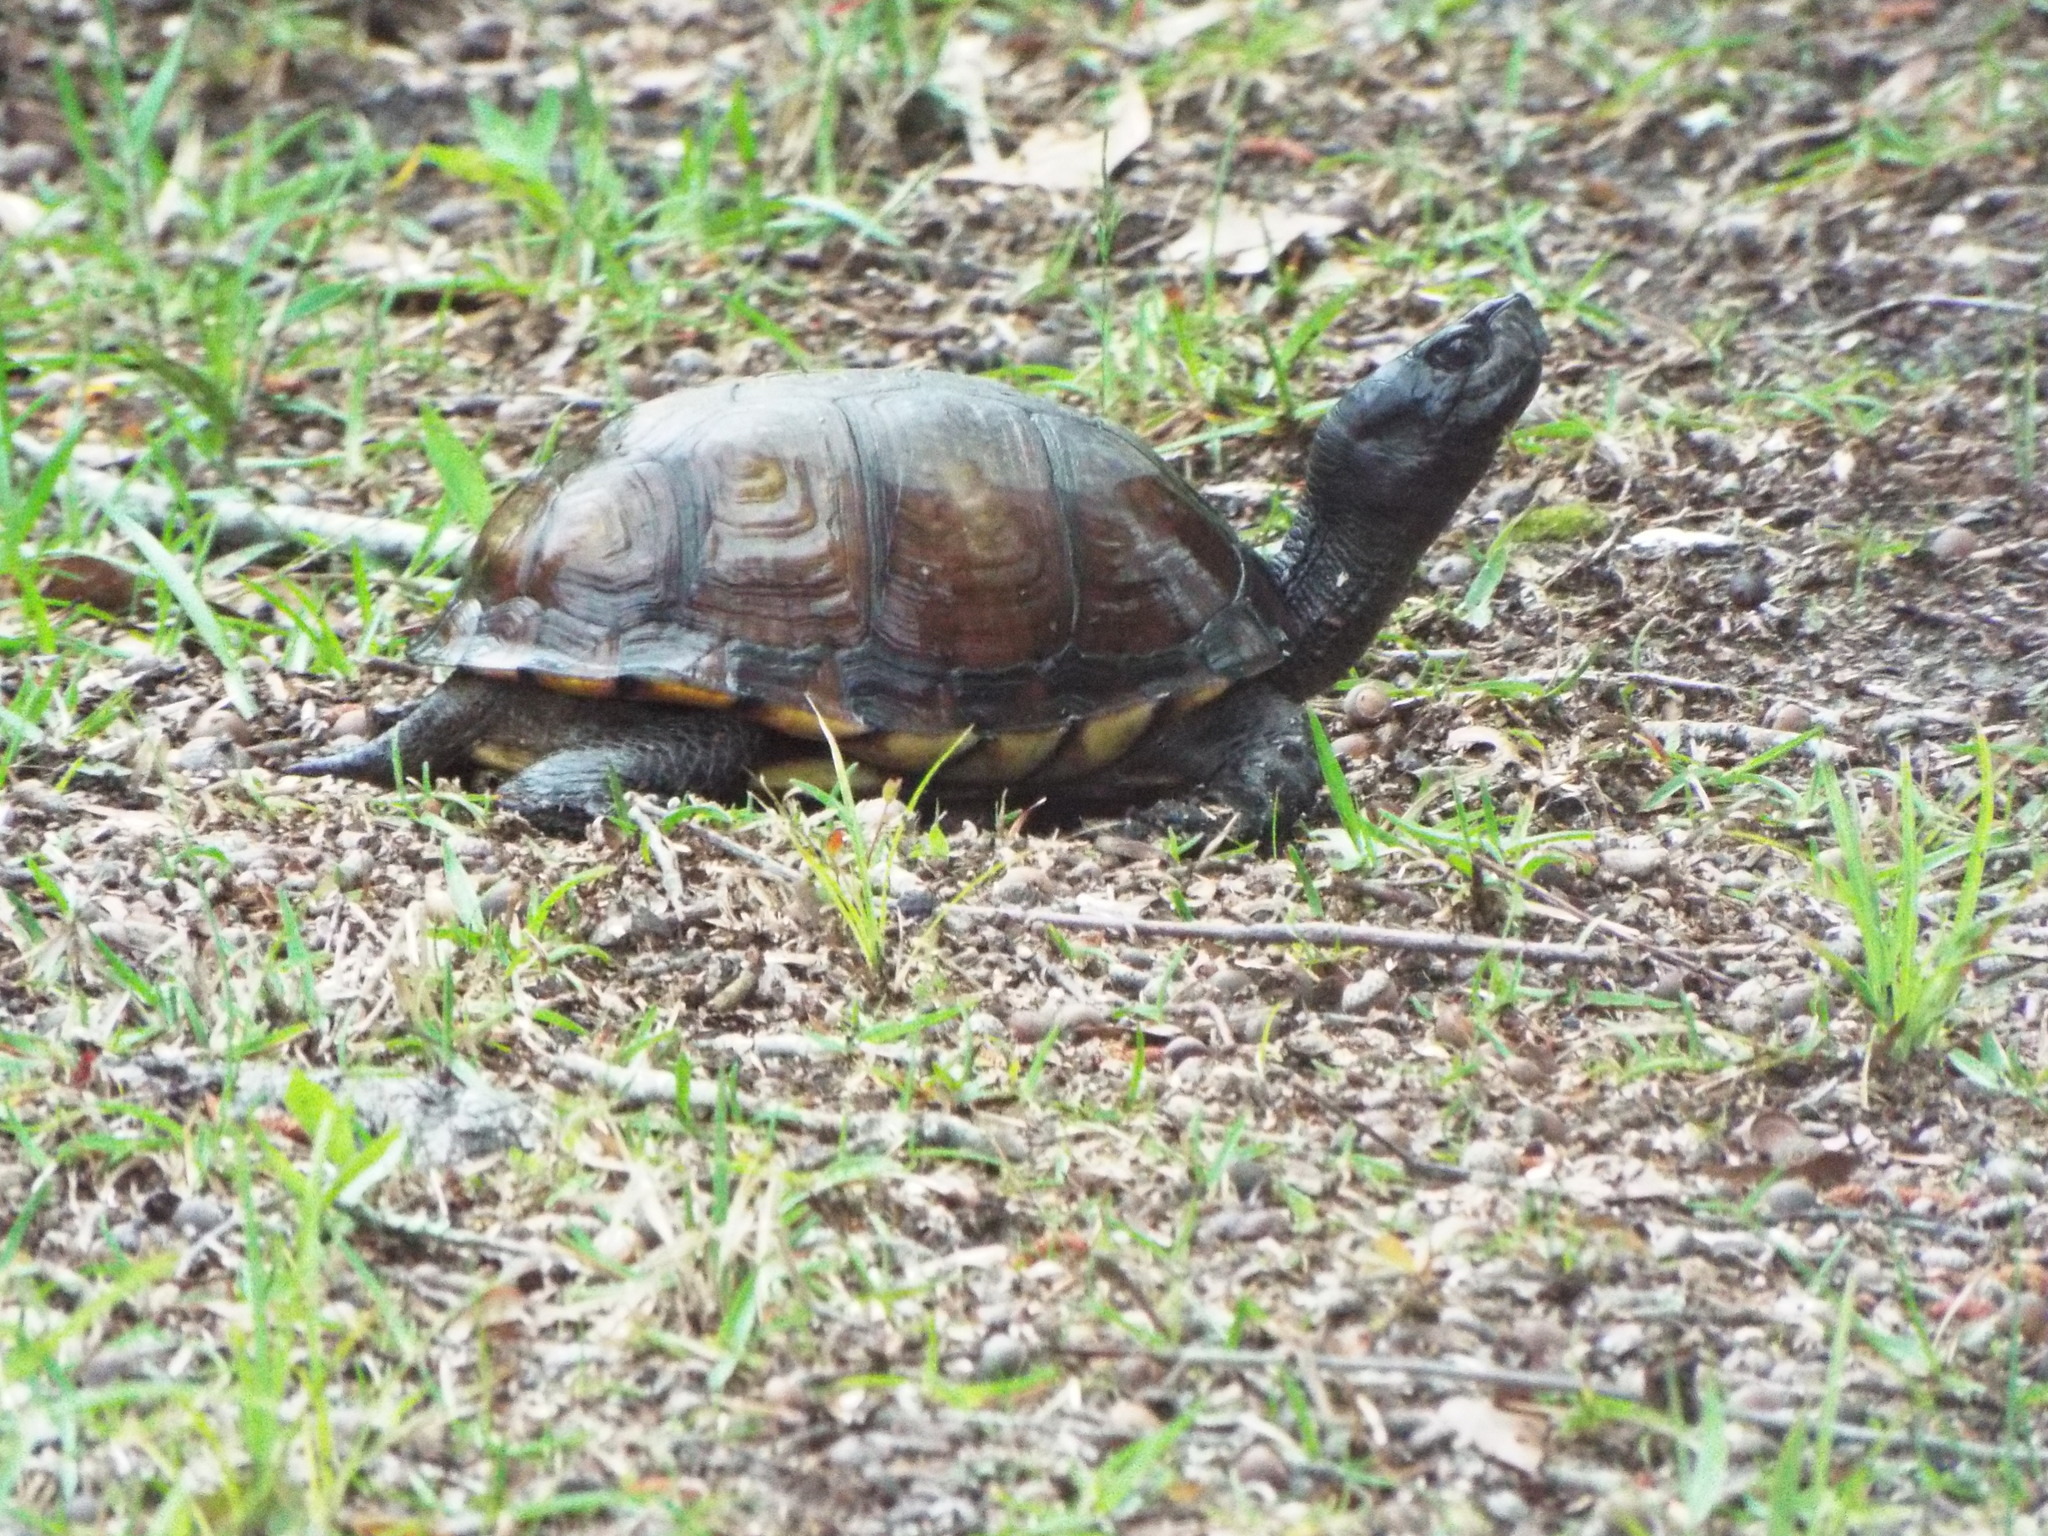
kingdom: Animalia
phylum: Chordata
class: Testudines
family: Emydidae
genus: Terrapene
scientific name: Terrapene carolina
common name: Common box turtle
